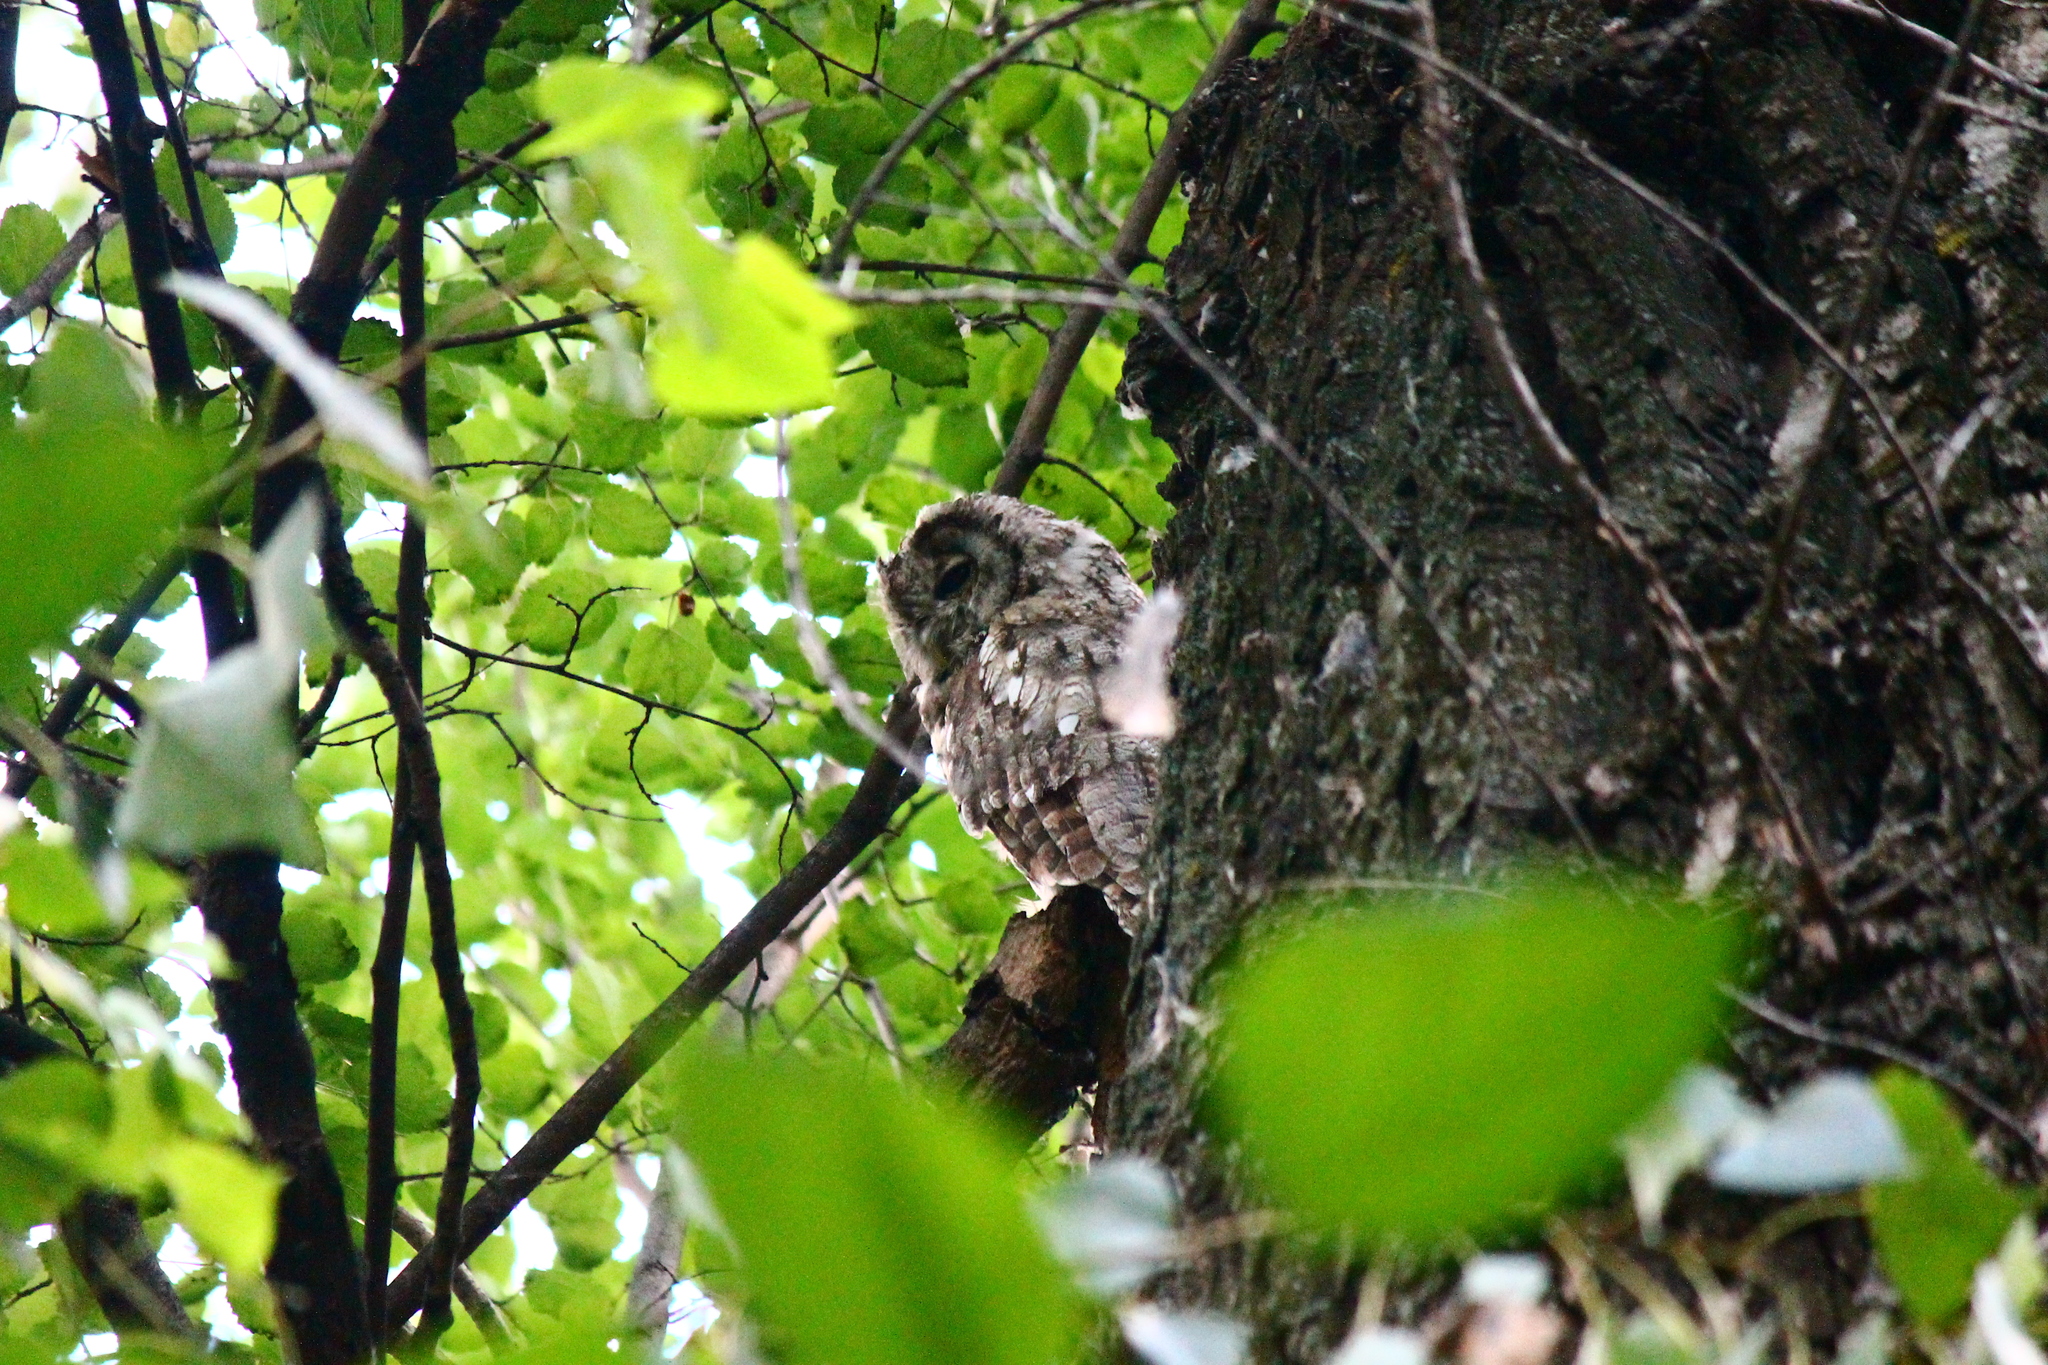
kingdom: Animalia
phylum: Chordata
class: Aves
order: Strigiformes
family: Strigidae
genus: Strix
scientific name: Strix aluco
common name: Tawny owl
